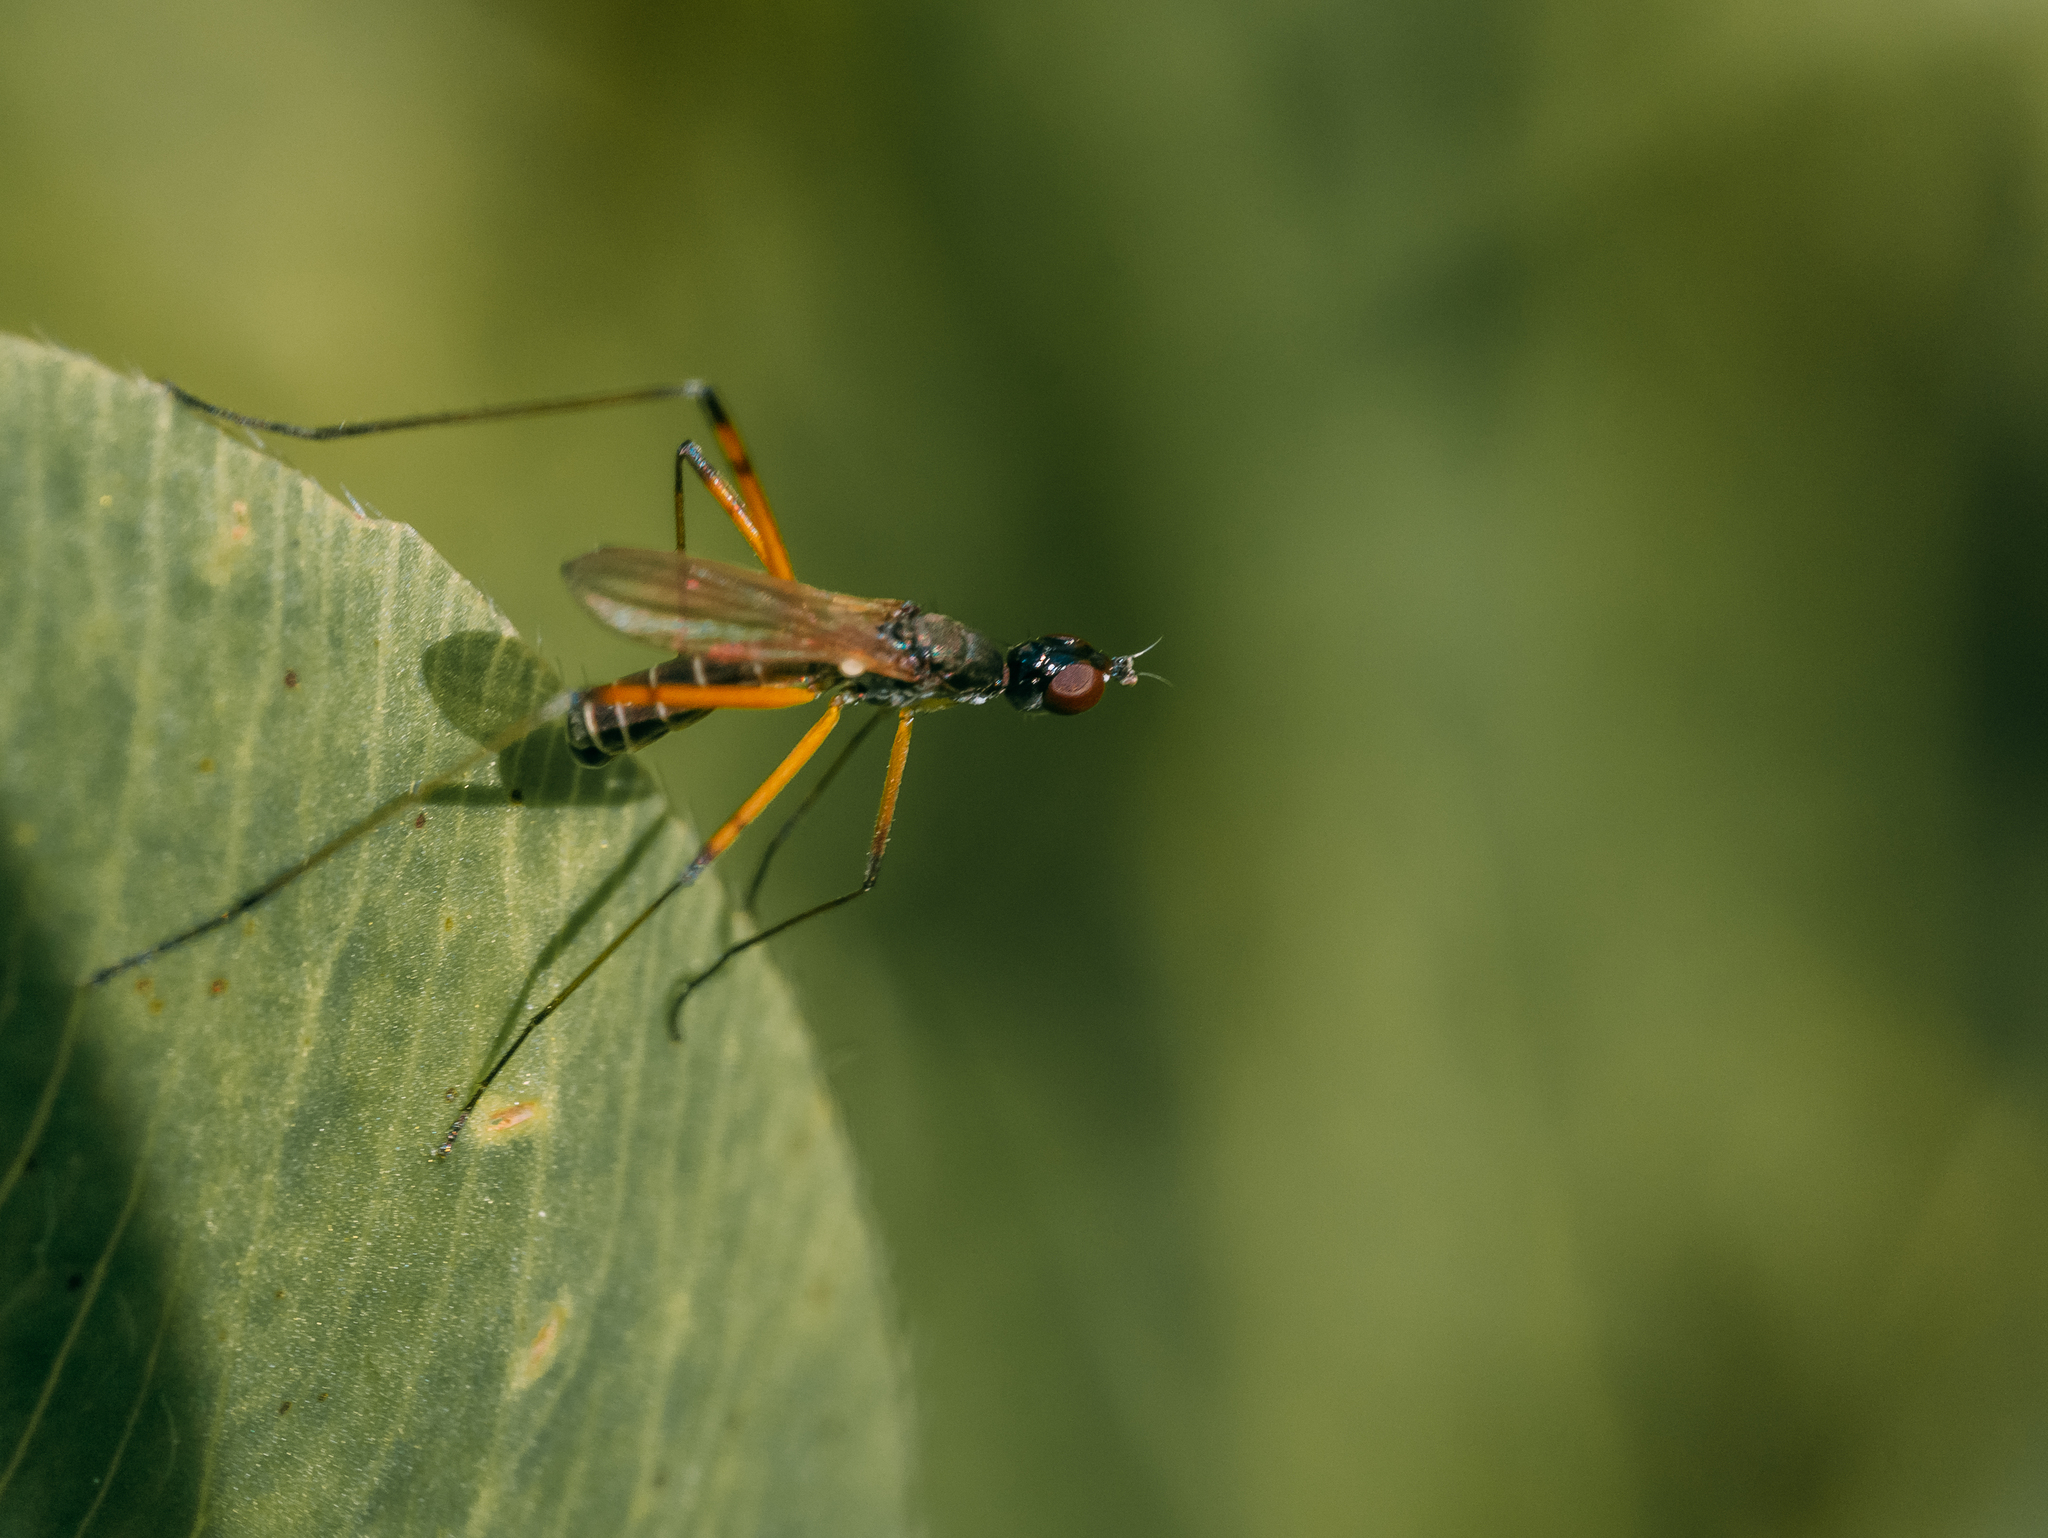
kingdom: Animalia
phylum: Arthropoda
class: Insecta
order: Diptera
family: Micropezidae
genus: Micropeza
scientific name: Micropeza corrigiolata
